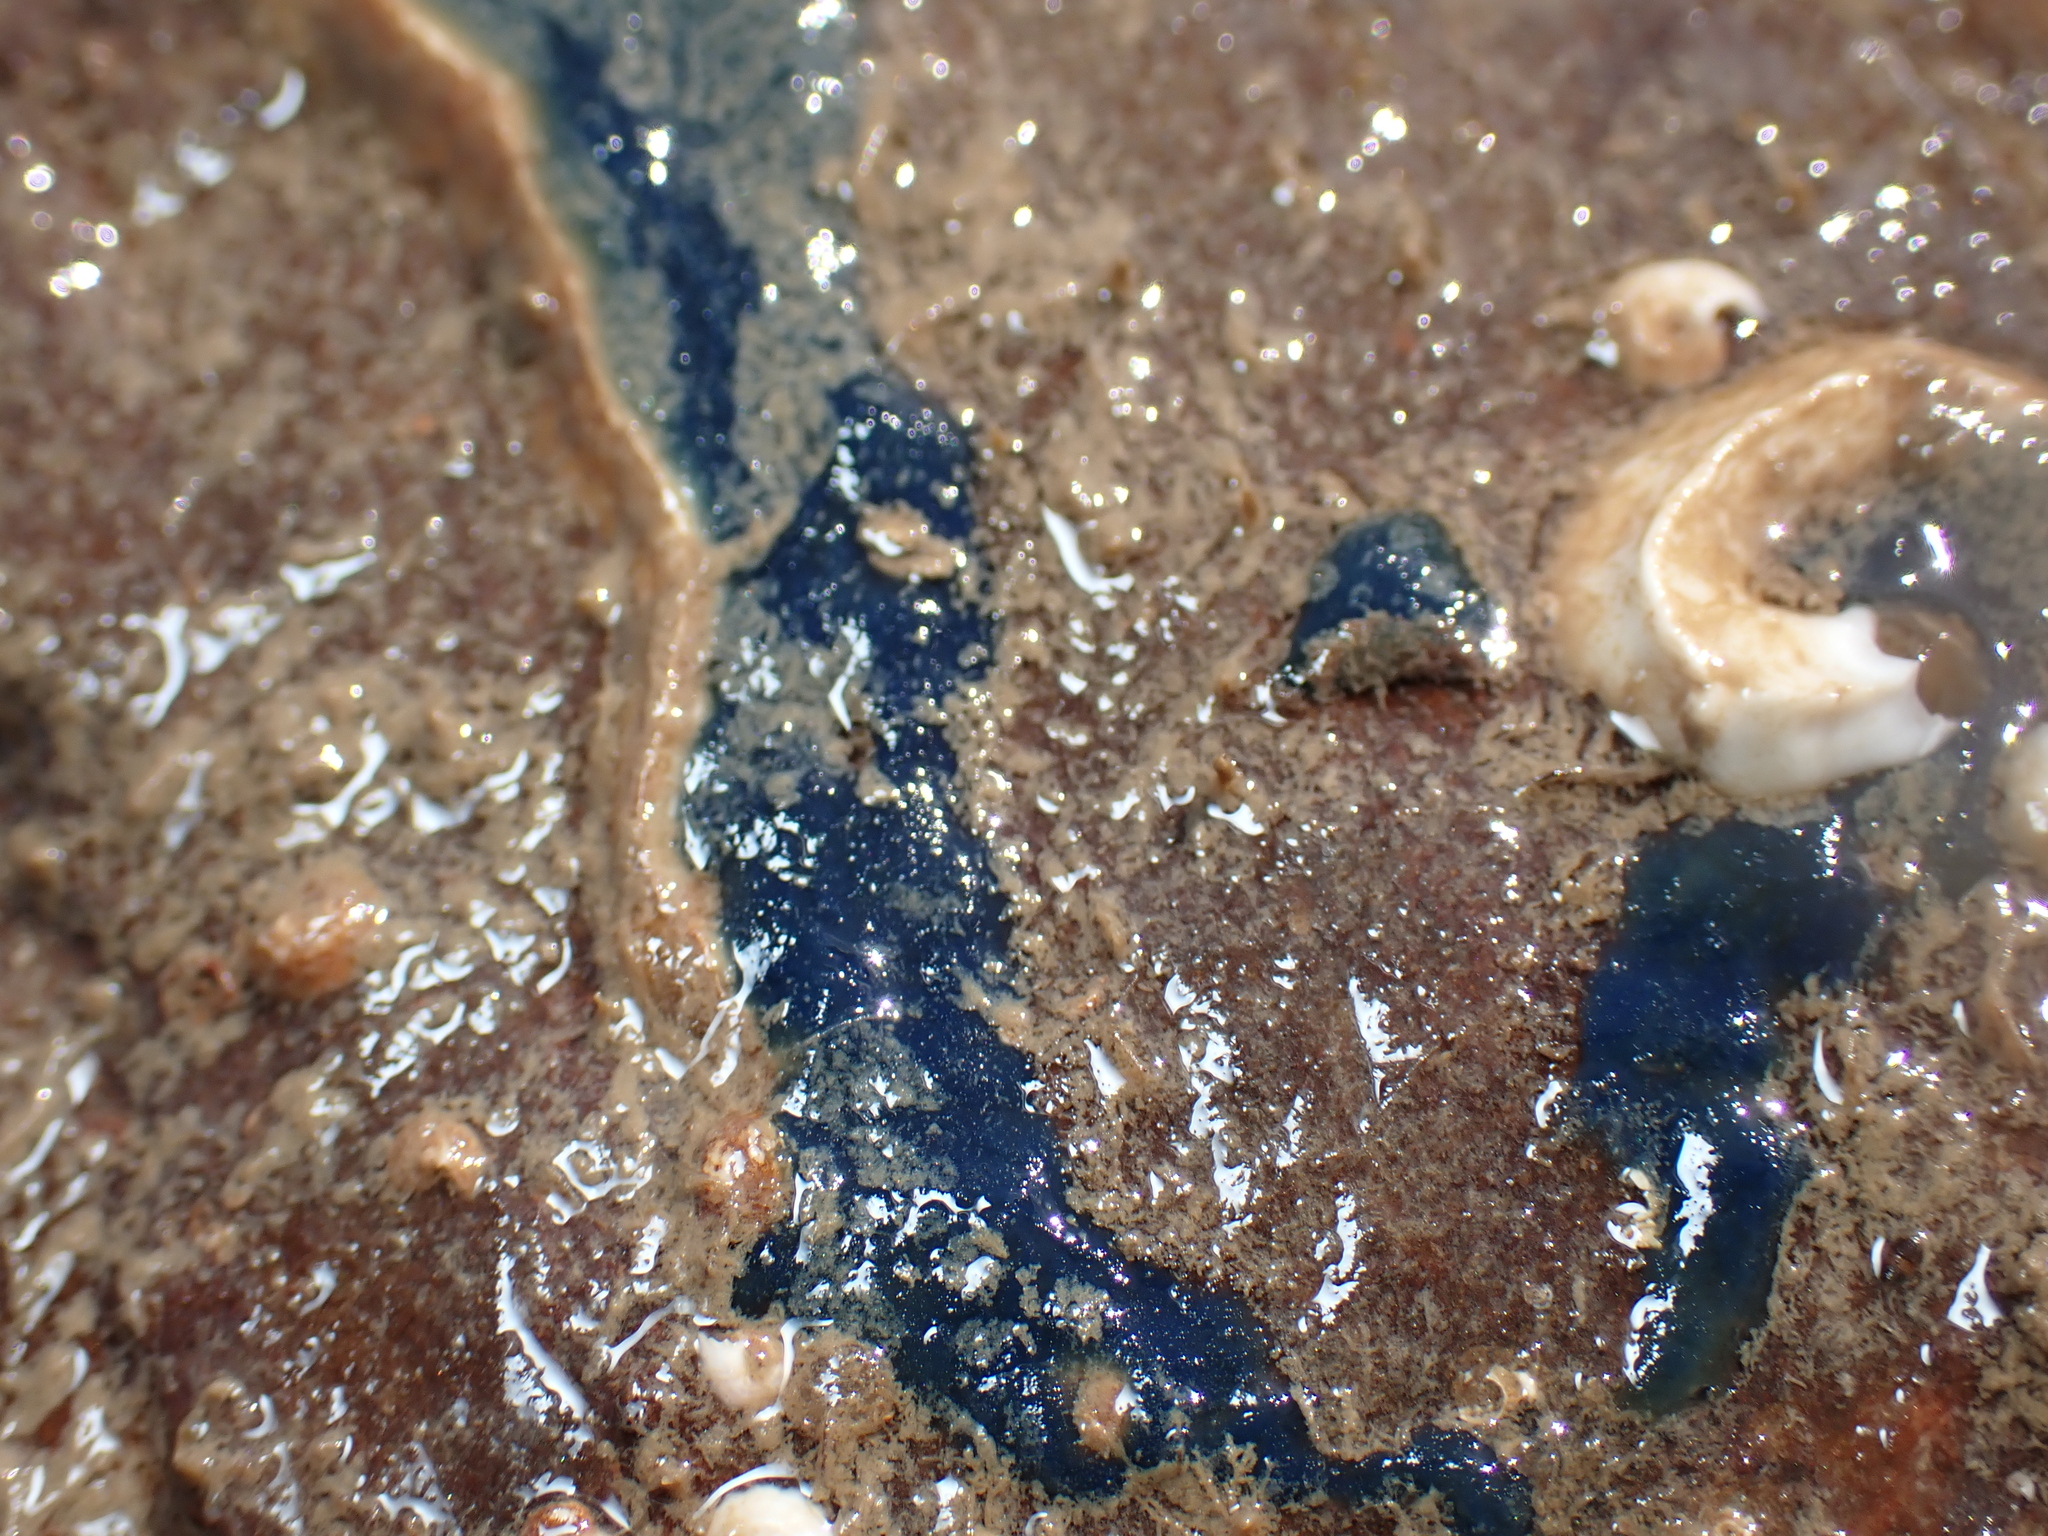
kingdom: Animalia
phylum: Porifera
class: Demospongiae
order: Suberitida
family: Suberitidae
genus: Terpios
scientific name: Terpios gelatinosus
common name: Blue encrusting sponge
